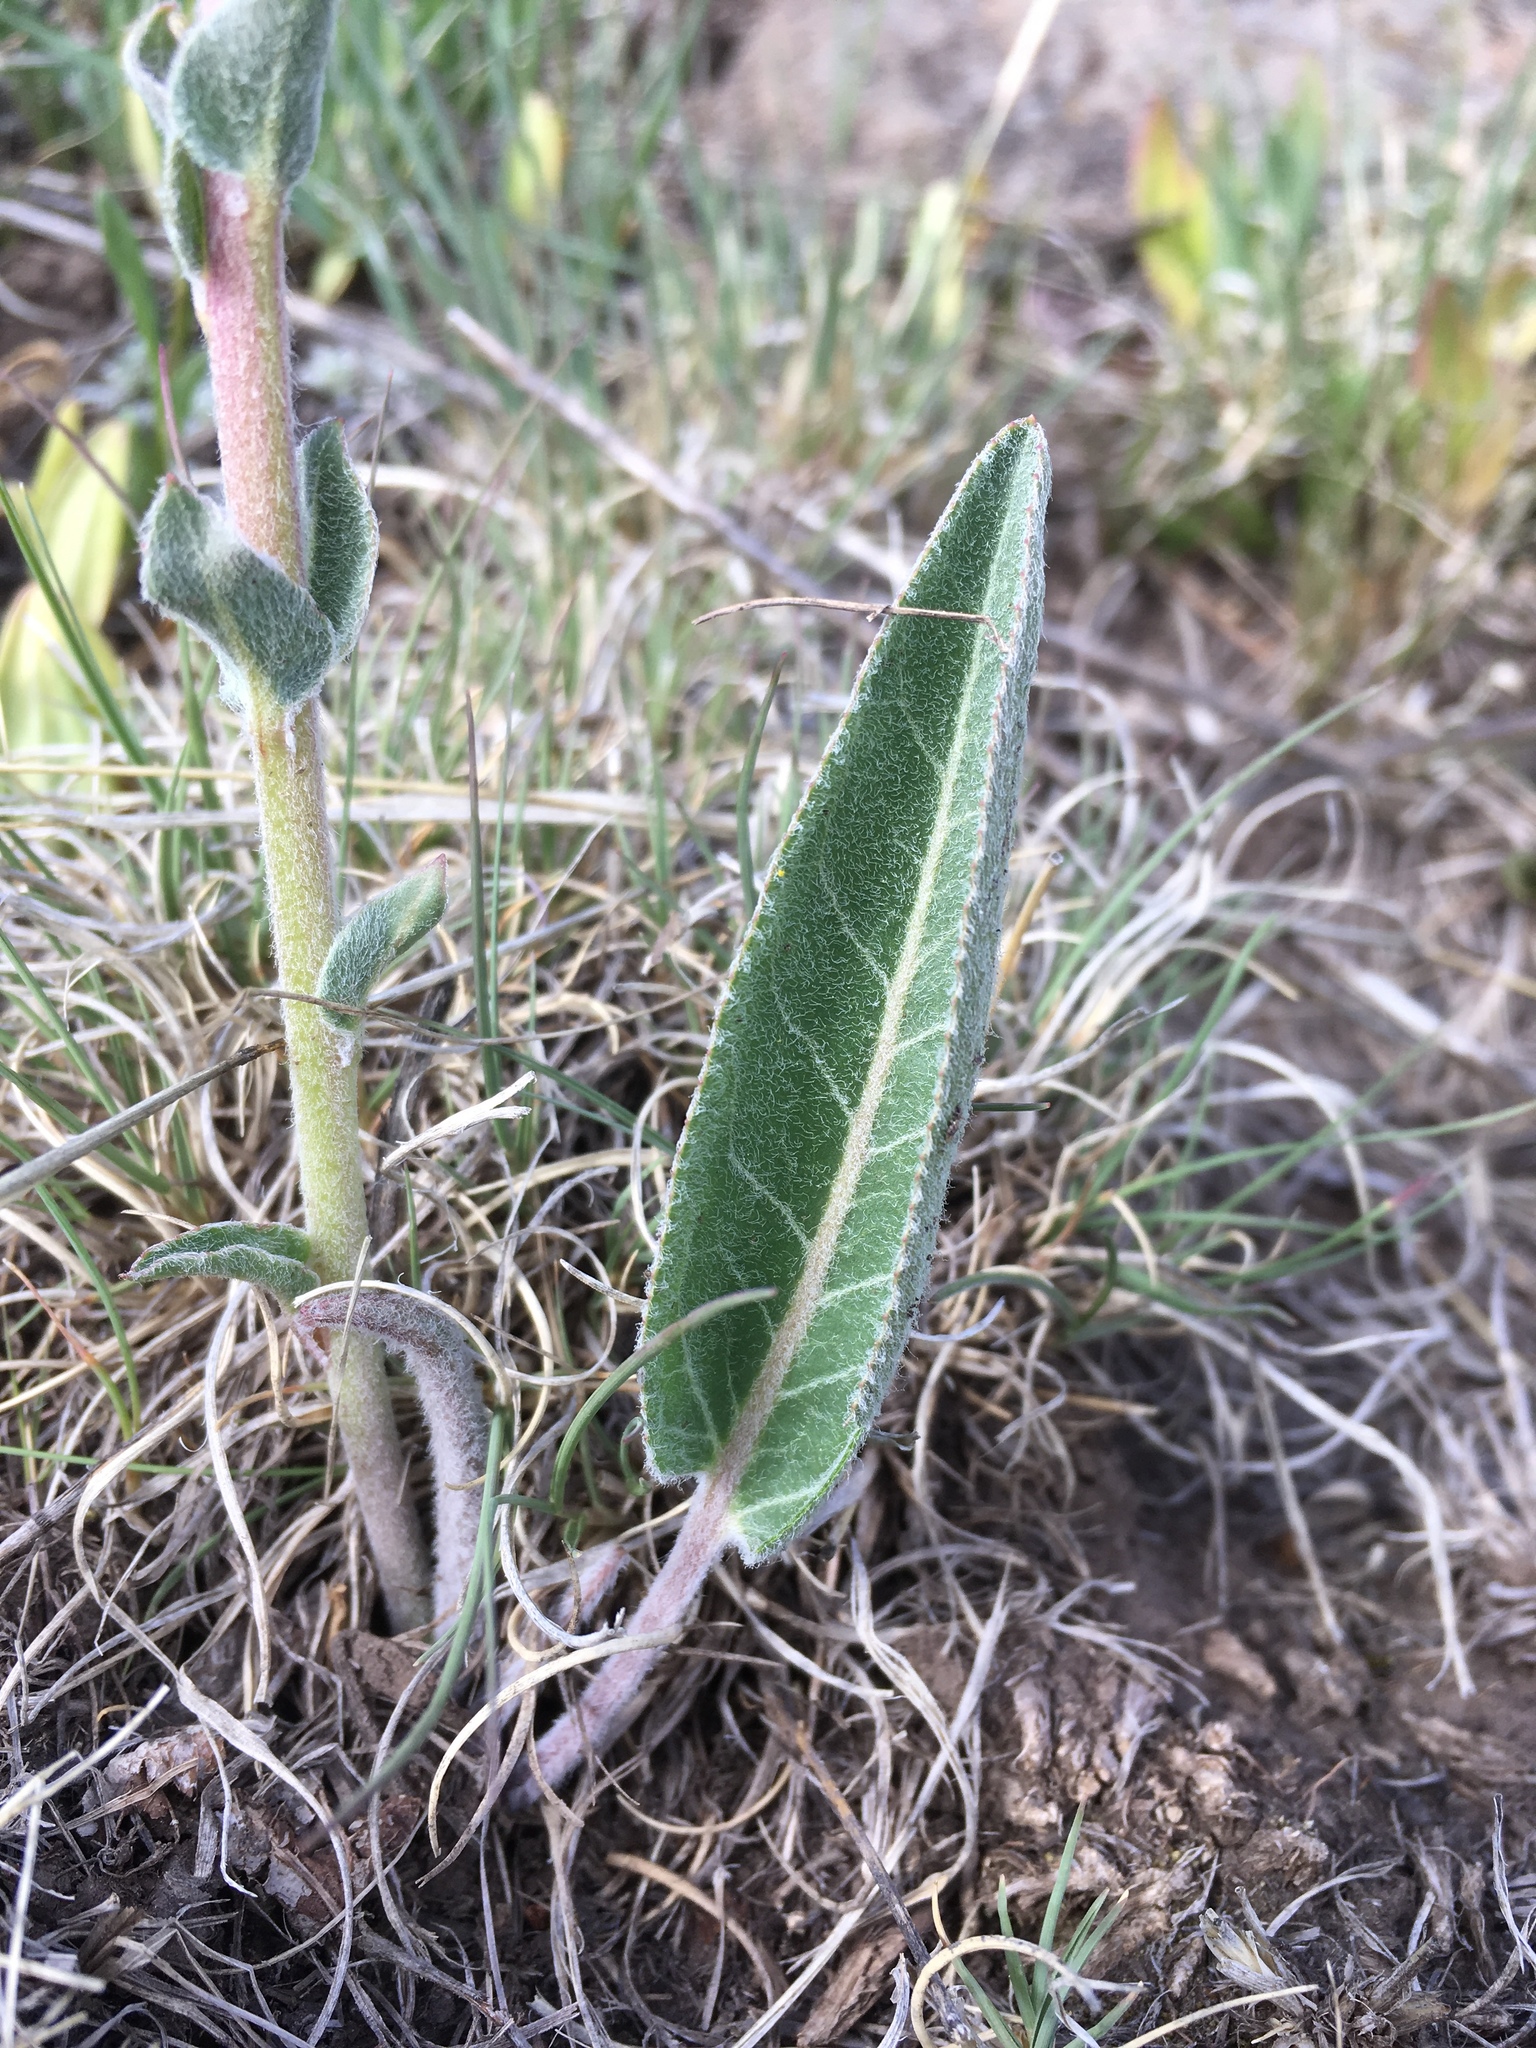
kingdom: Plantae
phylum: Tracheophyta
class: Magnoliopsida
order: Lamiales
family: Plantaginaceae
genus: Veronica
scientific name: Veronica plantaginea
